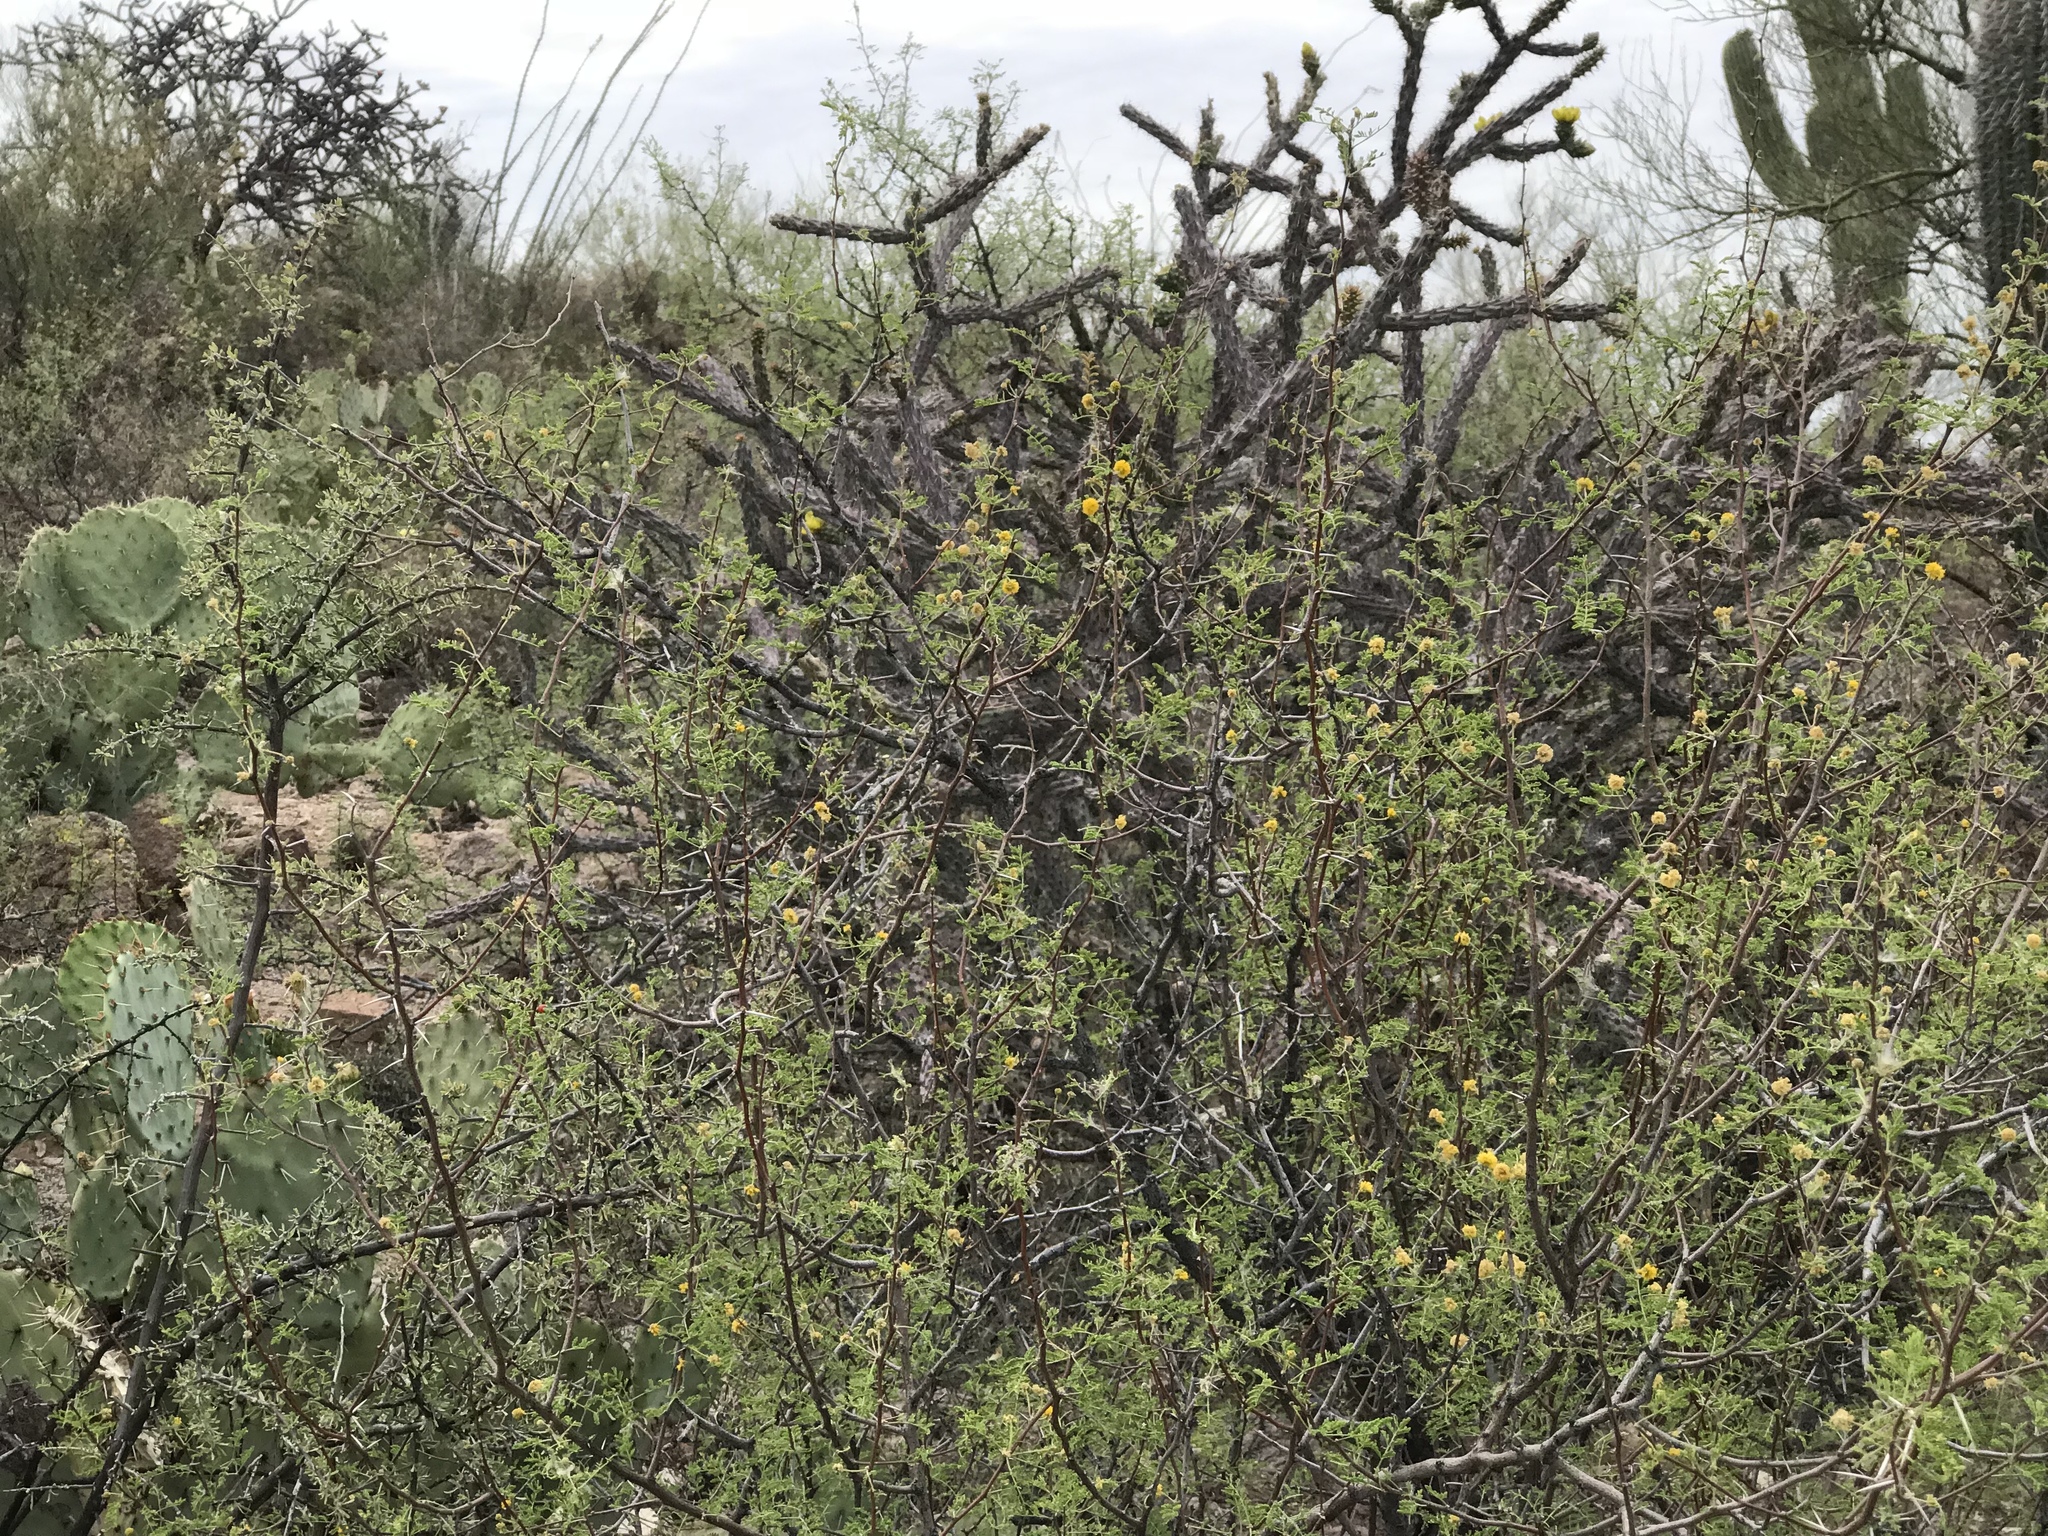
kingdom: Plantae
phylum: Tracheophyta
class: Magnoliopsida
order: Fabales
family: Fabaceae
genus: Vachellia
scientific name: Vachellia constricta
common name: Mescat acacia
